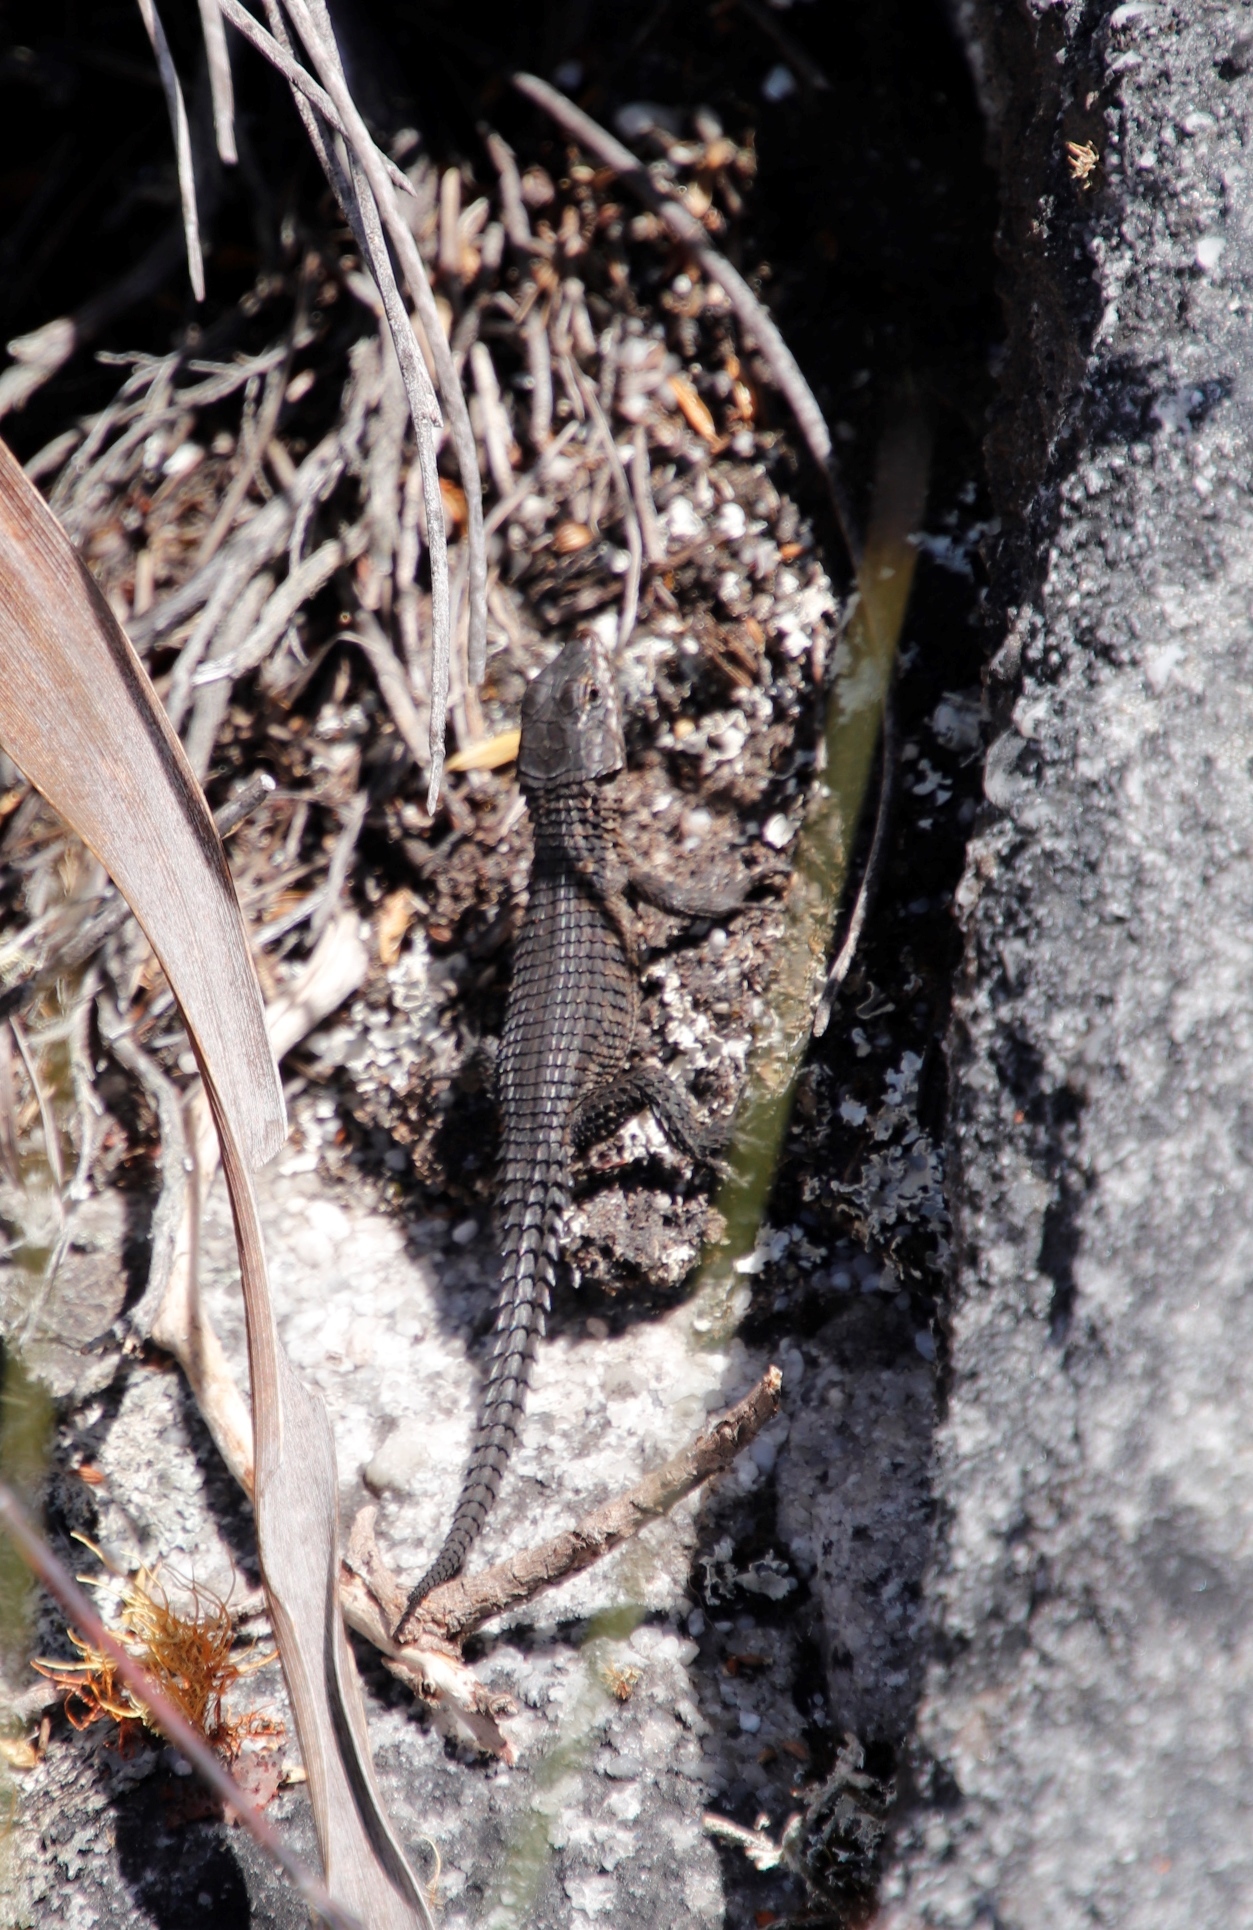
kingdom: Animalia
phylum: Chordata
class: Squamata
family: Cordylidae
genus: Cordylus
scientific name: Cordylus niger
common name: Black girdled lizard
